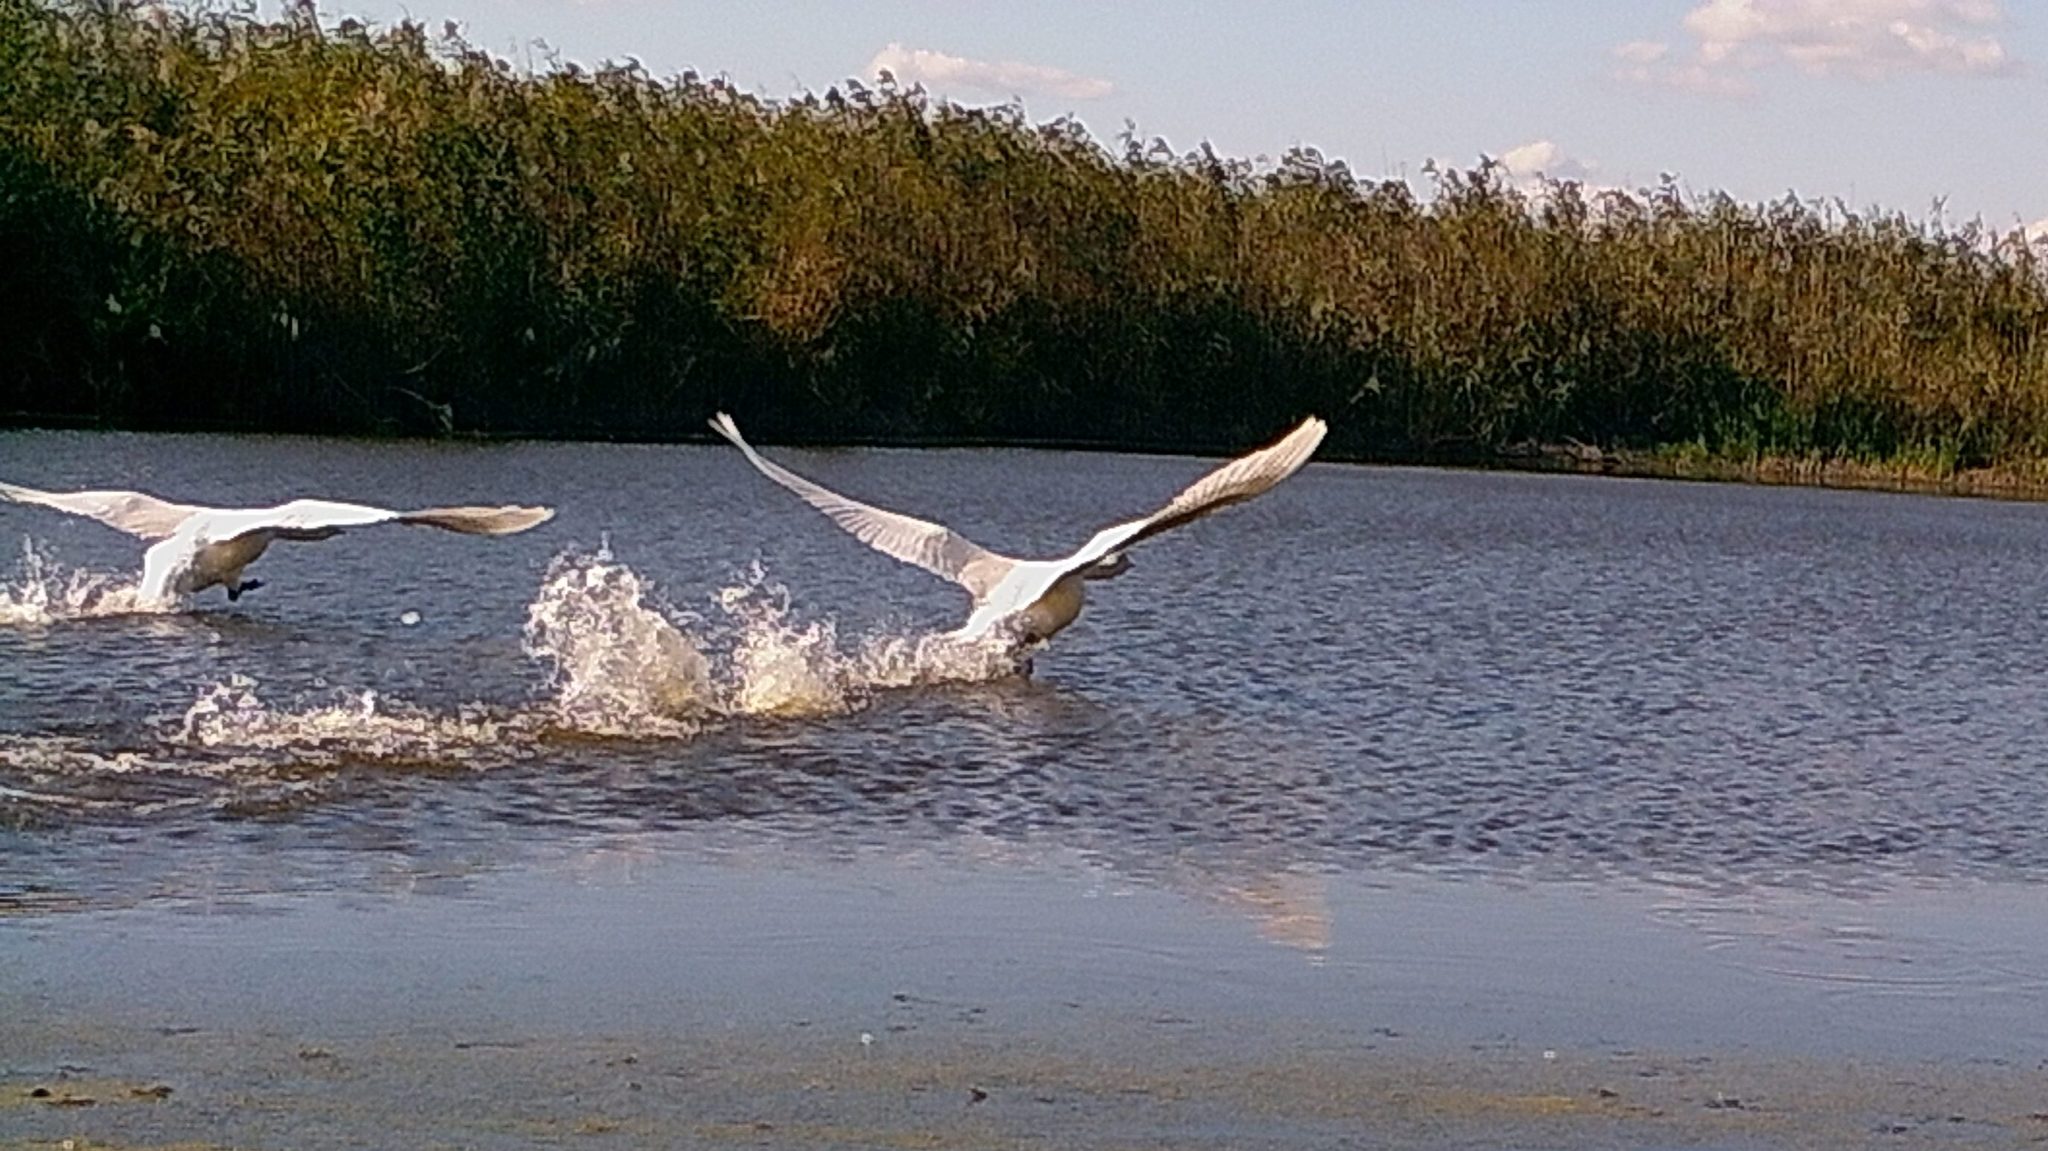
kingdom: Animalia
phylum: Chordata
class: Aves
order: Anseriformes
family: Anatidae
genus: Cygnus
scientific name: Cygnus olor
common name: Mute swan
